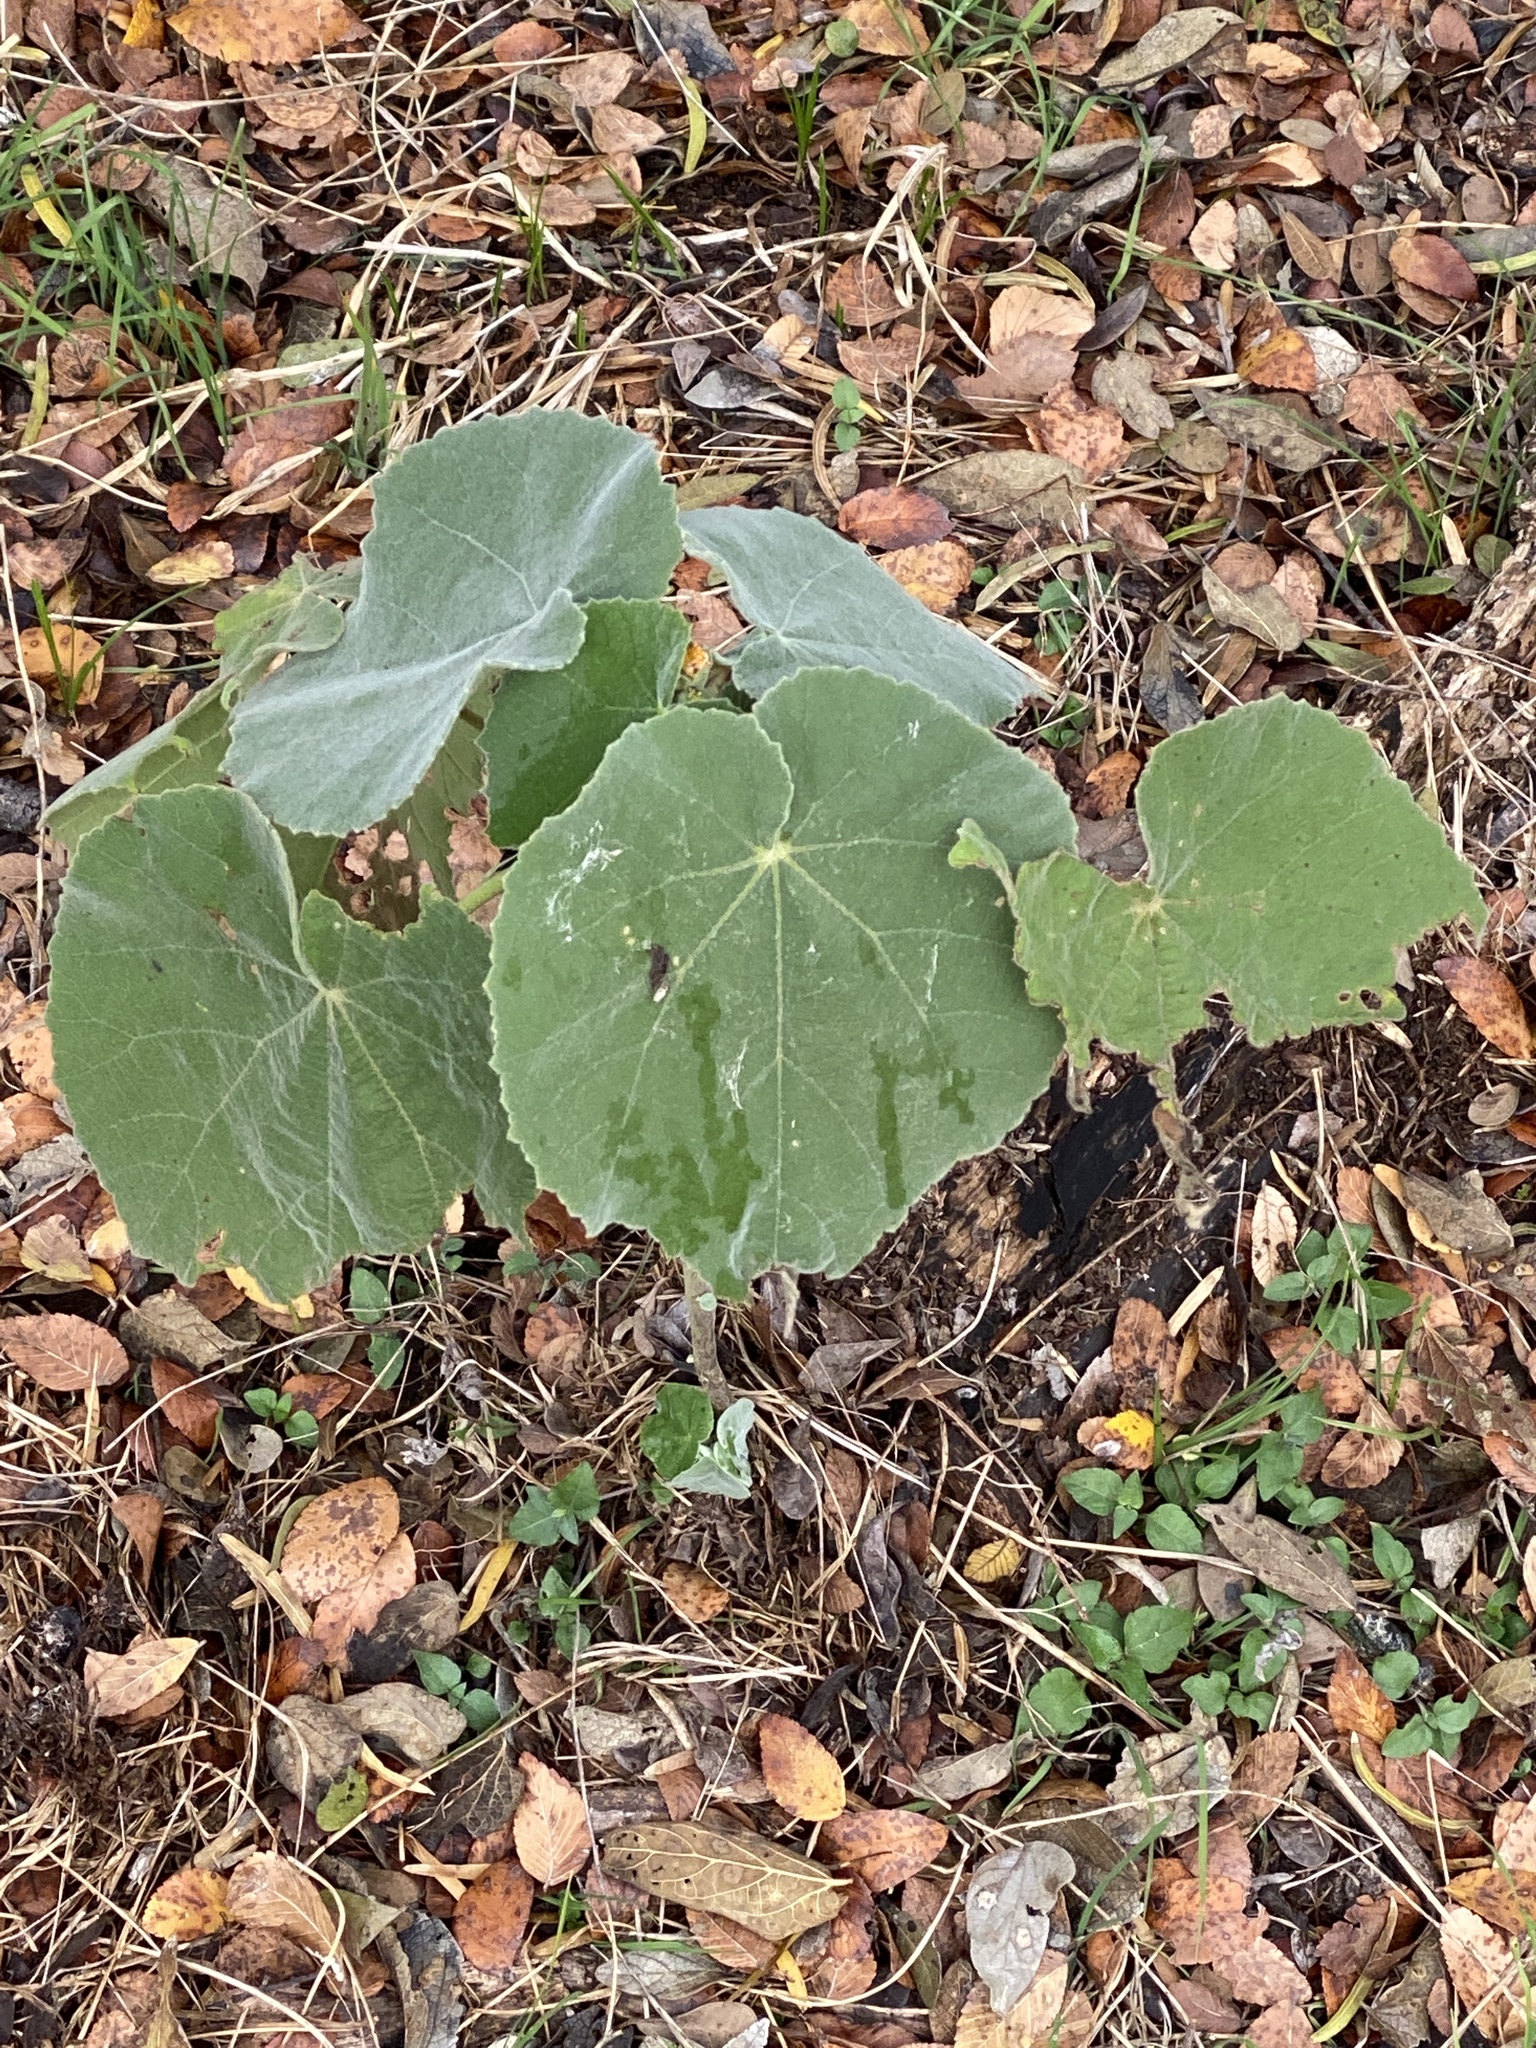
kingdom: Plantae
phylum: Tracheophyta
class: Magnoliopsida
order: Malvales
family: Malvaceae
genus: Allowissadula
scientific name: Allowissadula holosericea
